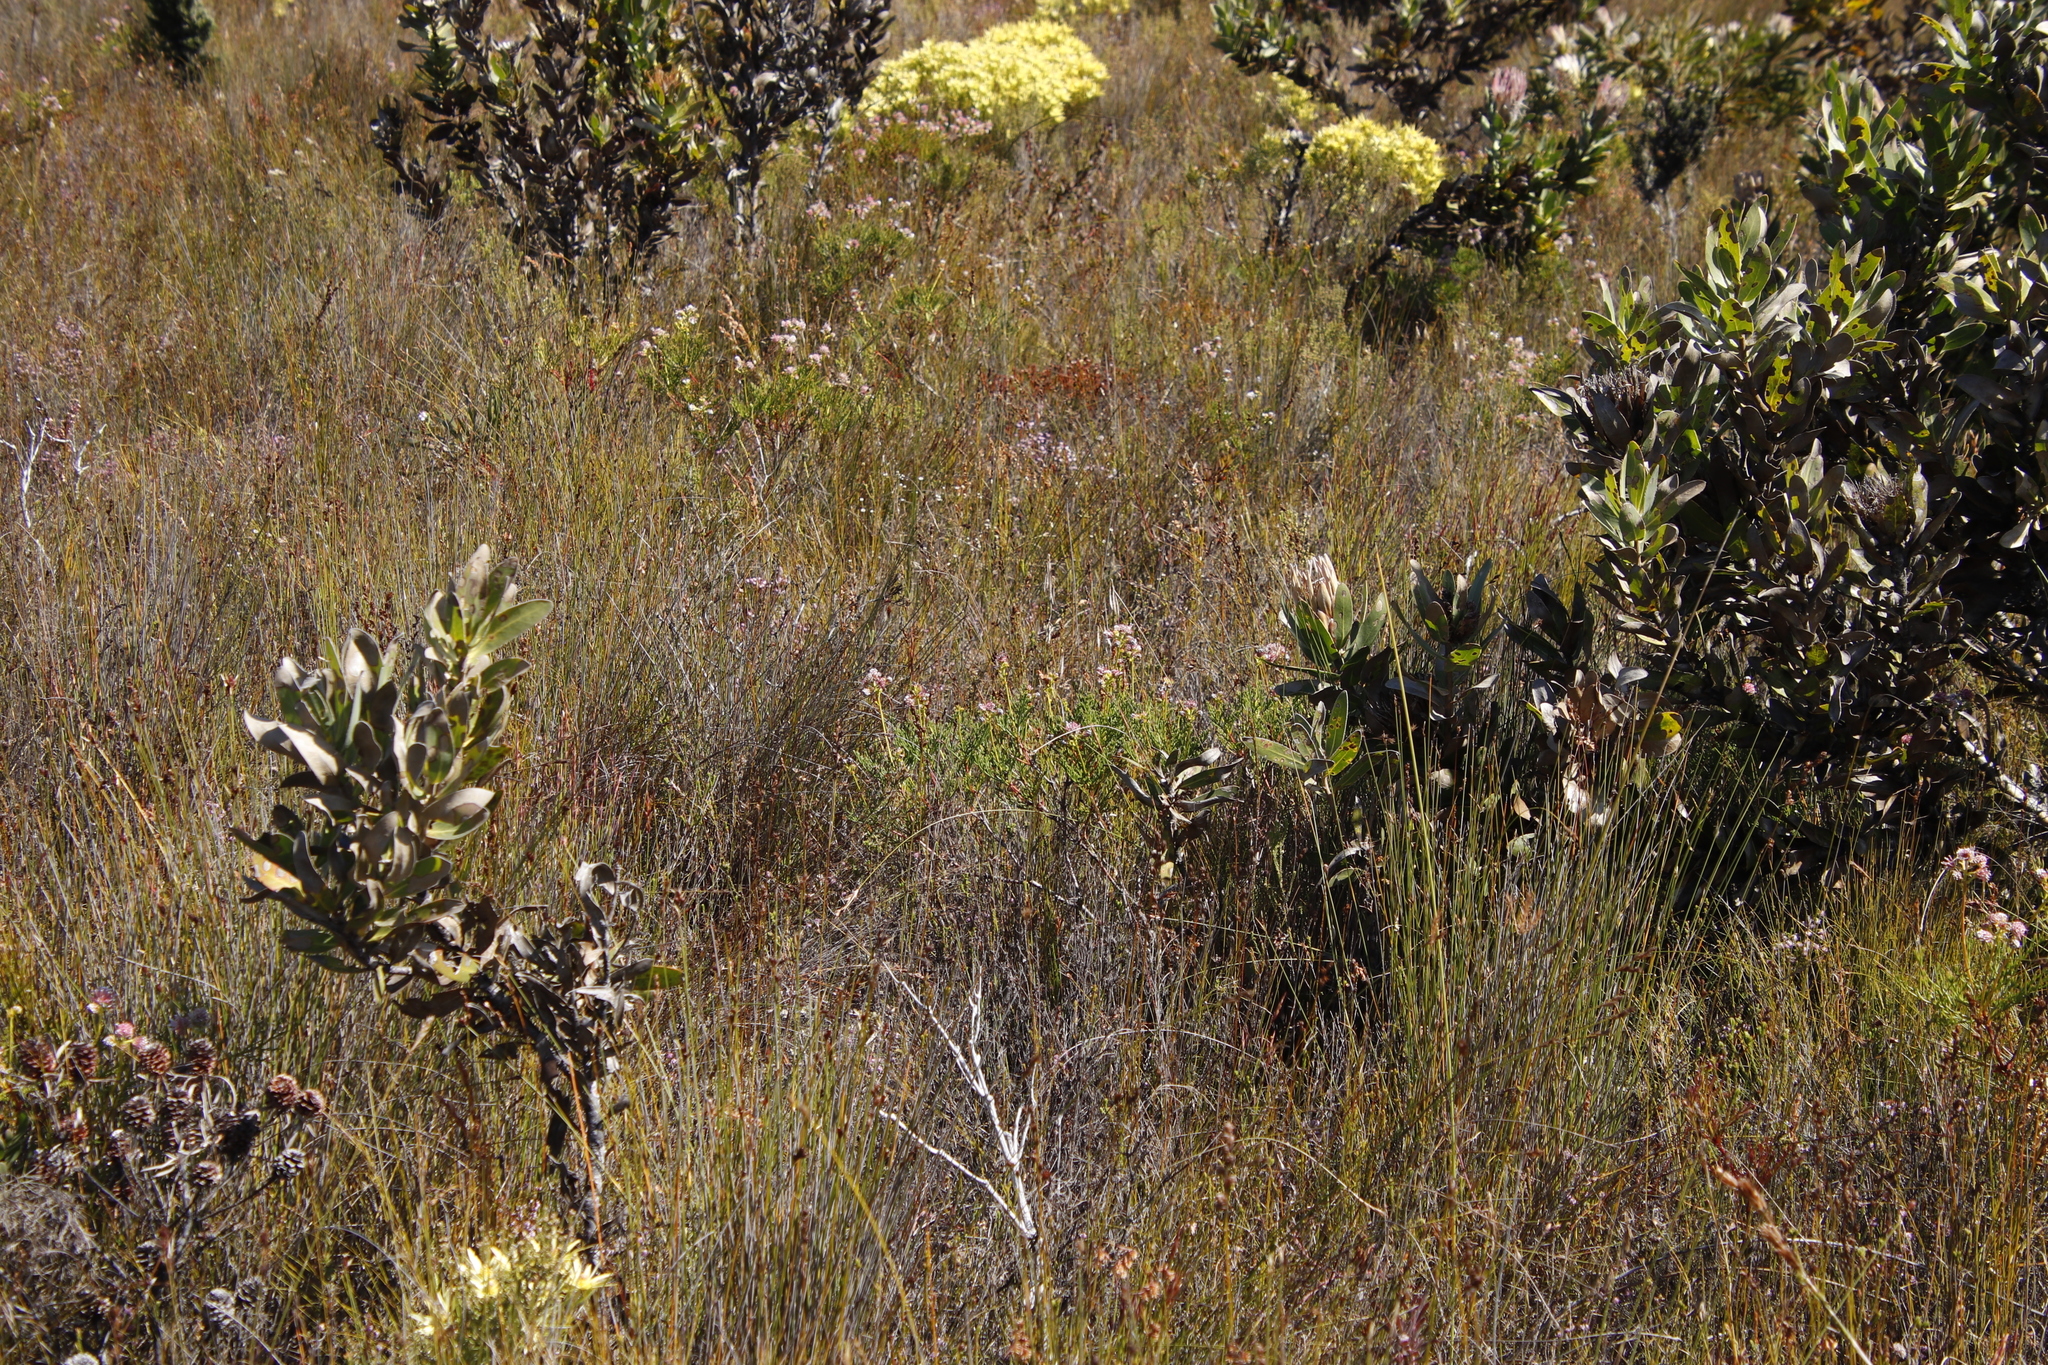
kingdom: Plantae
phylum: Tracheophyta
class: Magnoliopsida
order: Proteales
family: Proteaceae
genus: Serruria
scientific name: Serruria elongata
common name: Long-stalk spiderhead
